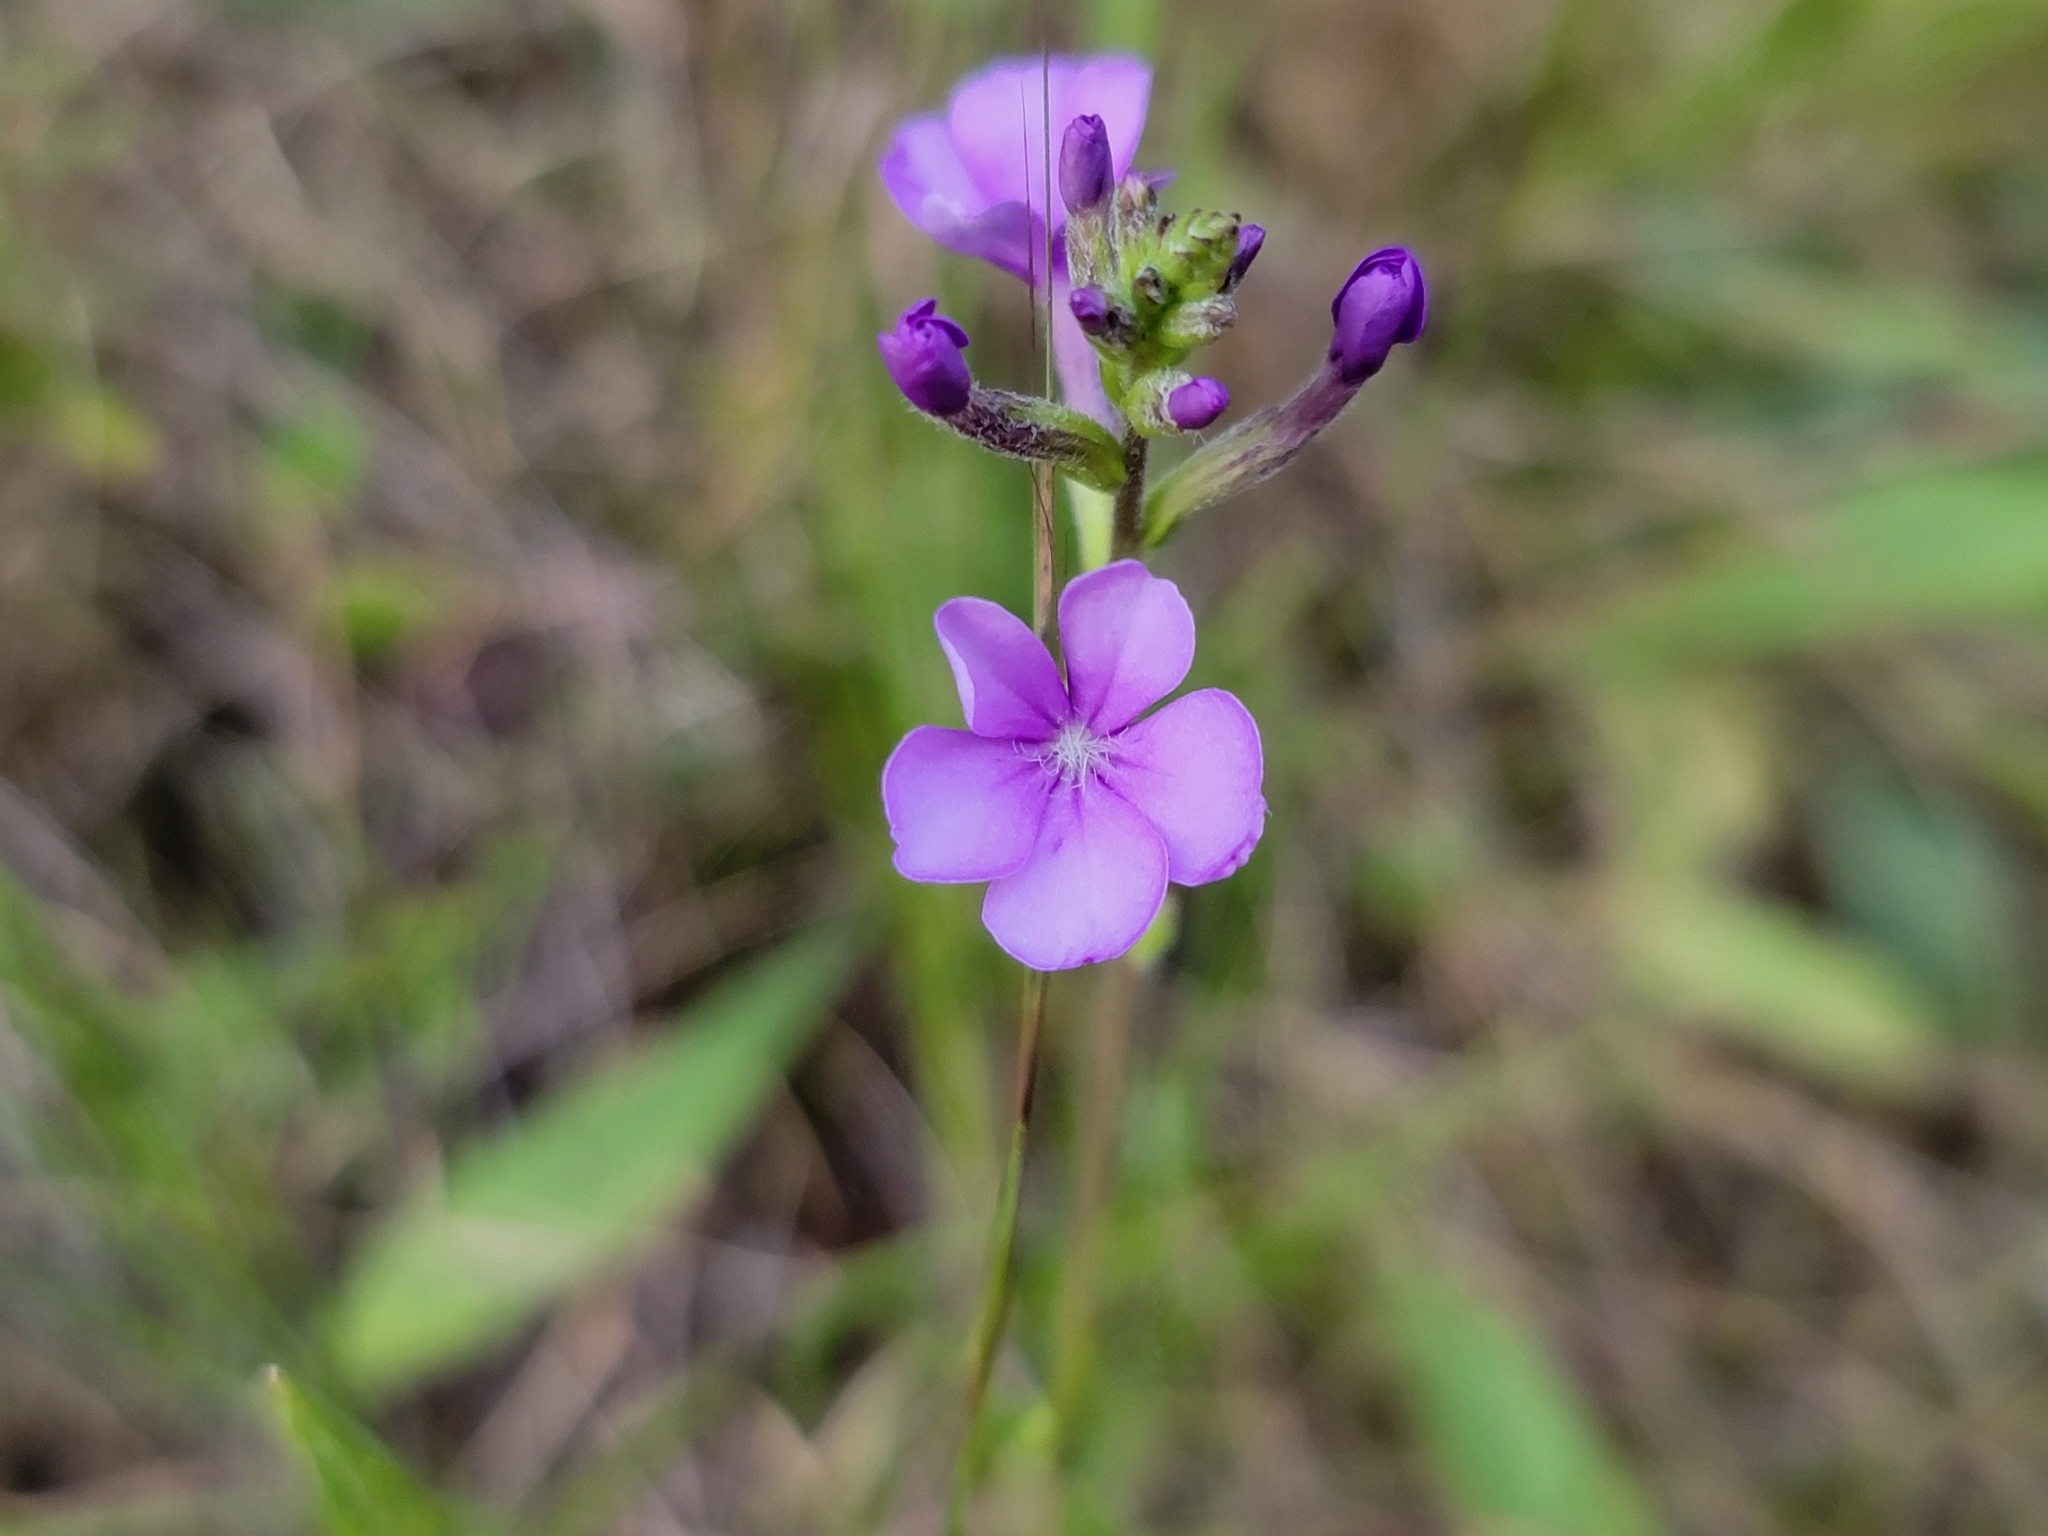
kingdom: Plantae
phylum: Tracheophyta
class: Magnoliopsida
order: Lamiales
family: Orobanchaceae
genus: Buchnera
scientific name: Buchnera americana
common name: American bluehearts
